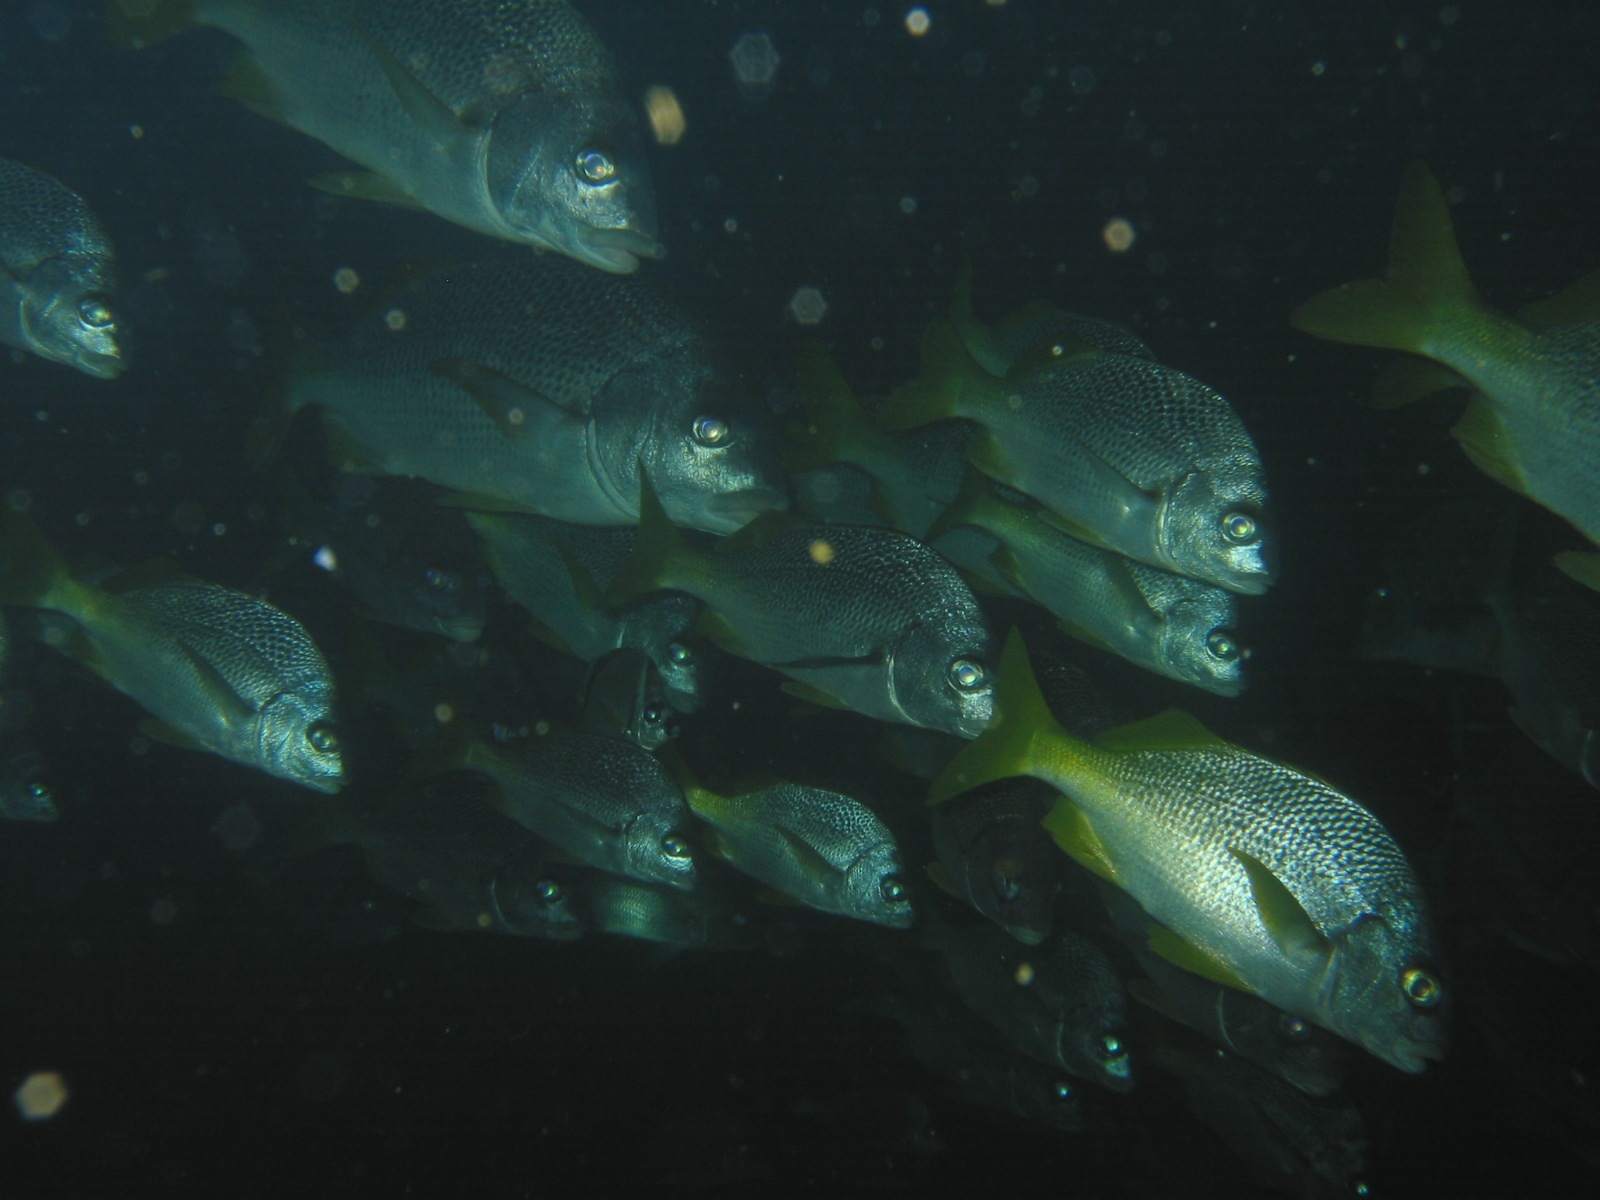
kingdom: Animalia
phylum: Chordata
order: Perciformes
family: Haemulidae
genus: Anisotremus
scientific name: Anisotremus espinozai
